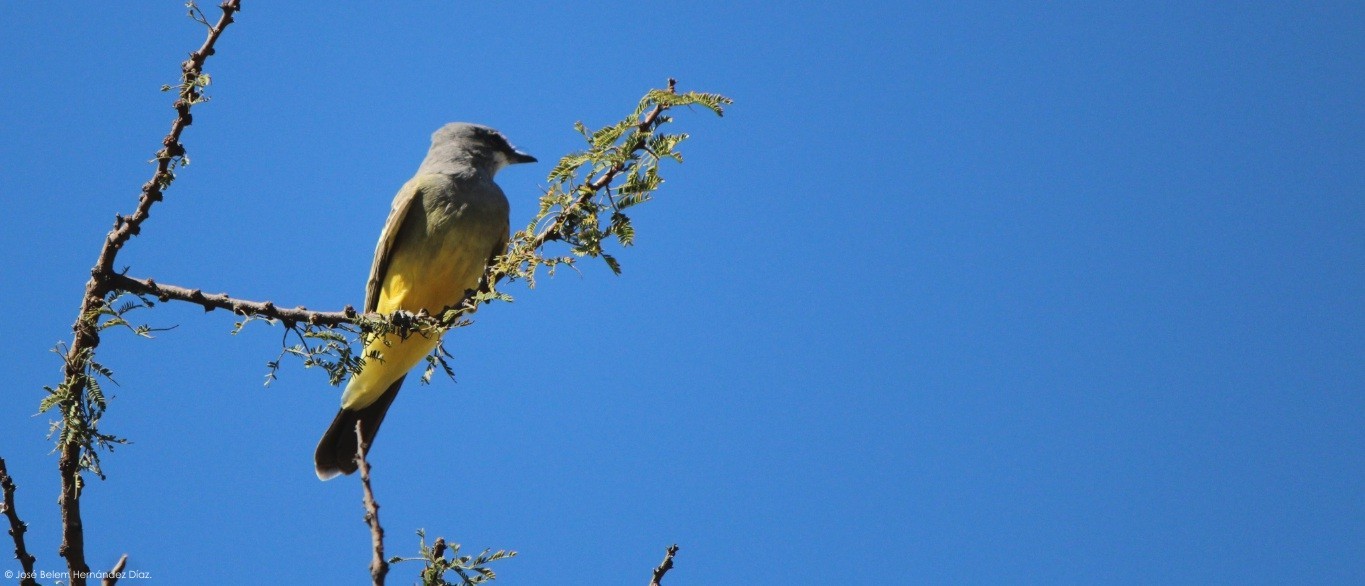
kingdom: Animalia
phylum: Chordata
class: Aves
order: Passeriformes
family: Tyrannidae
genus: Tyrannus
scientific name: Tyrannus vociferans
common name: Cassin's kingbird
